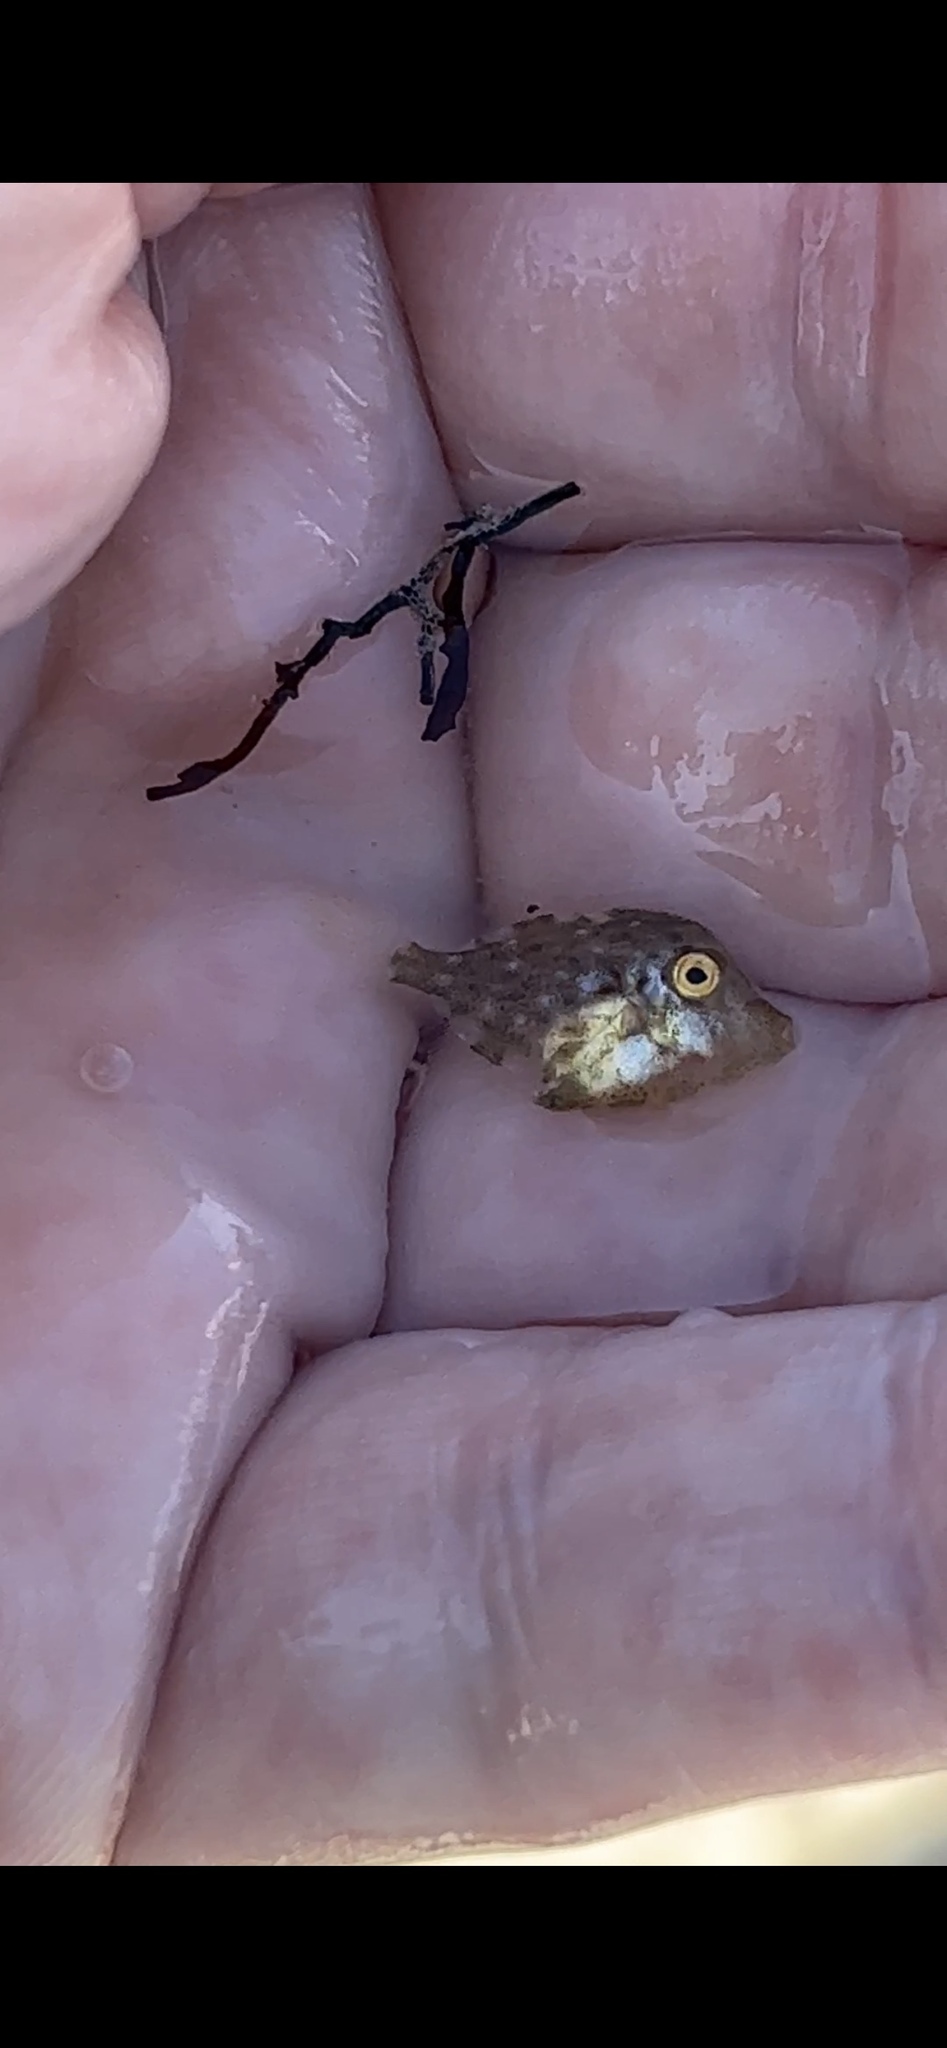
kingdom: Animalia
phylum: Chordata
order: Tetraodontiformes
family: Monacanthidae
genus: Stephanolepis
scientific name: Stephanolepis hispidus
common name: Planehead filefish
